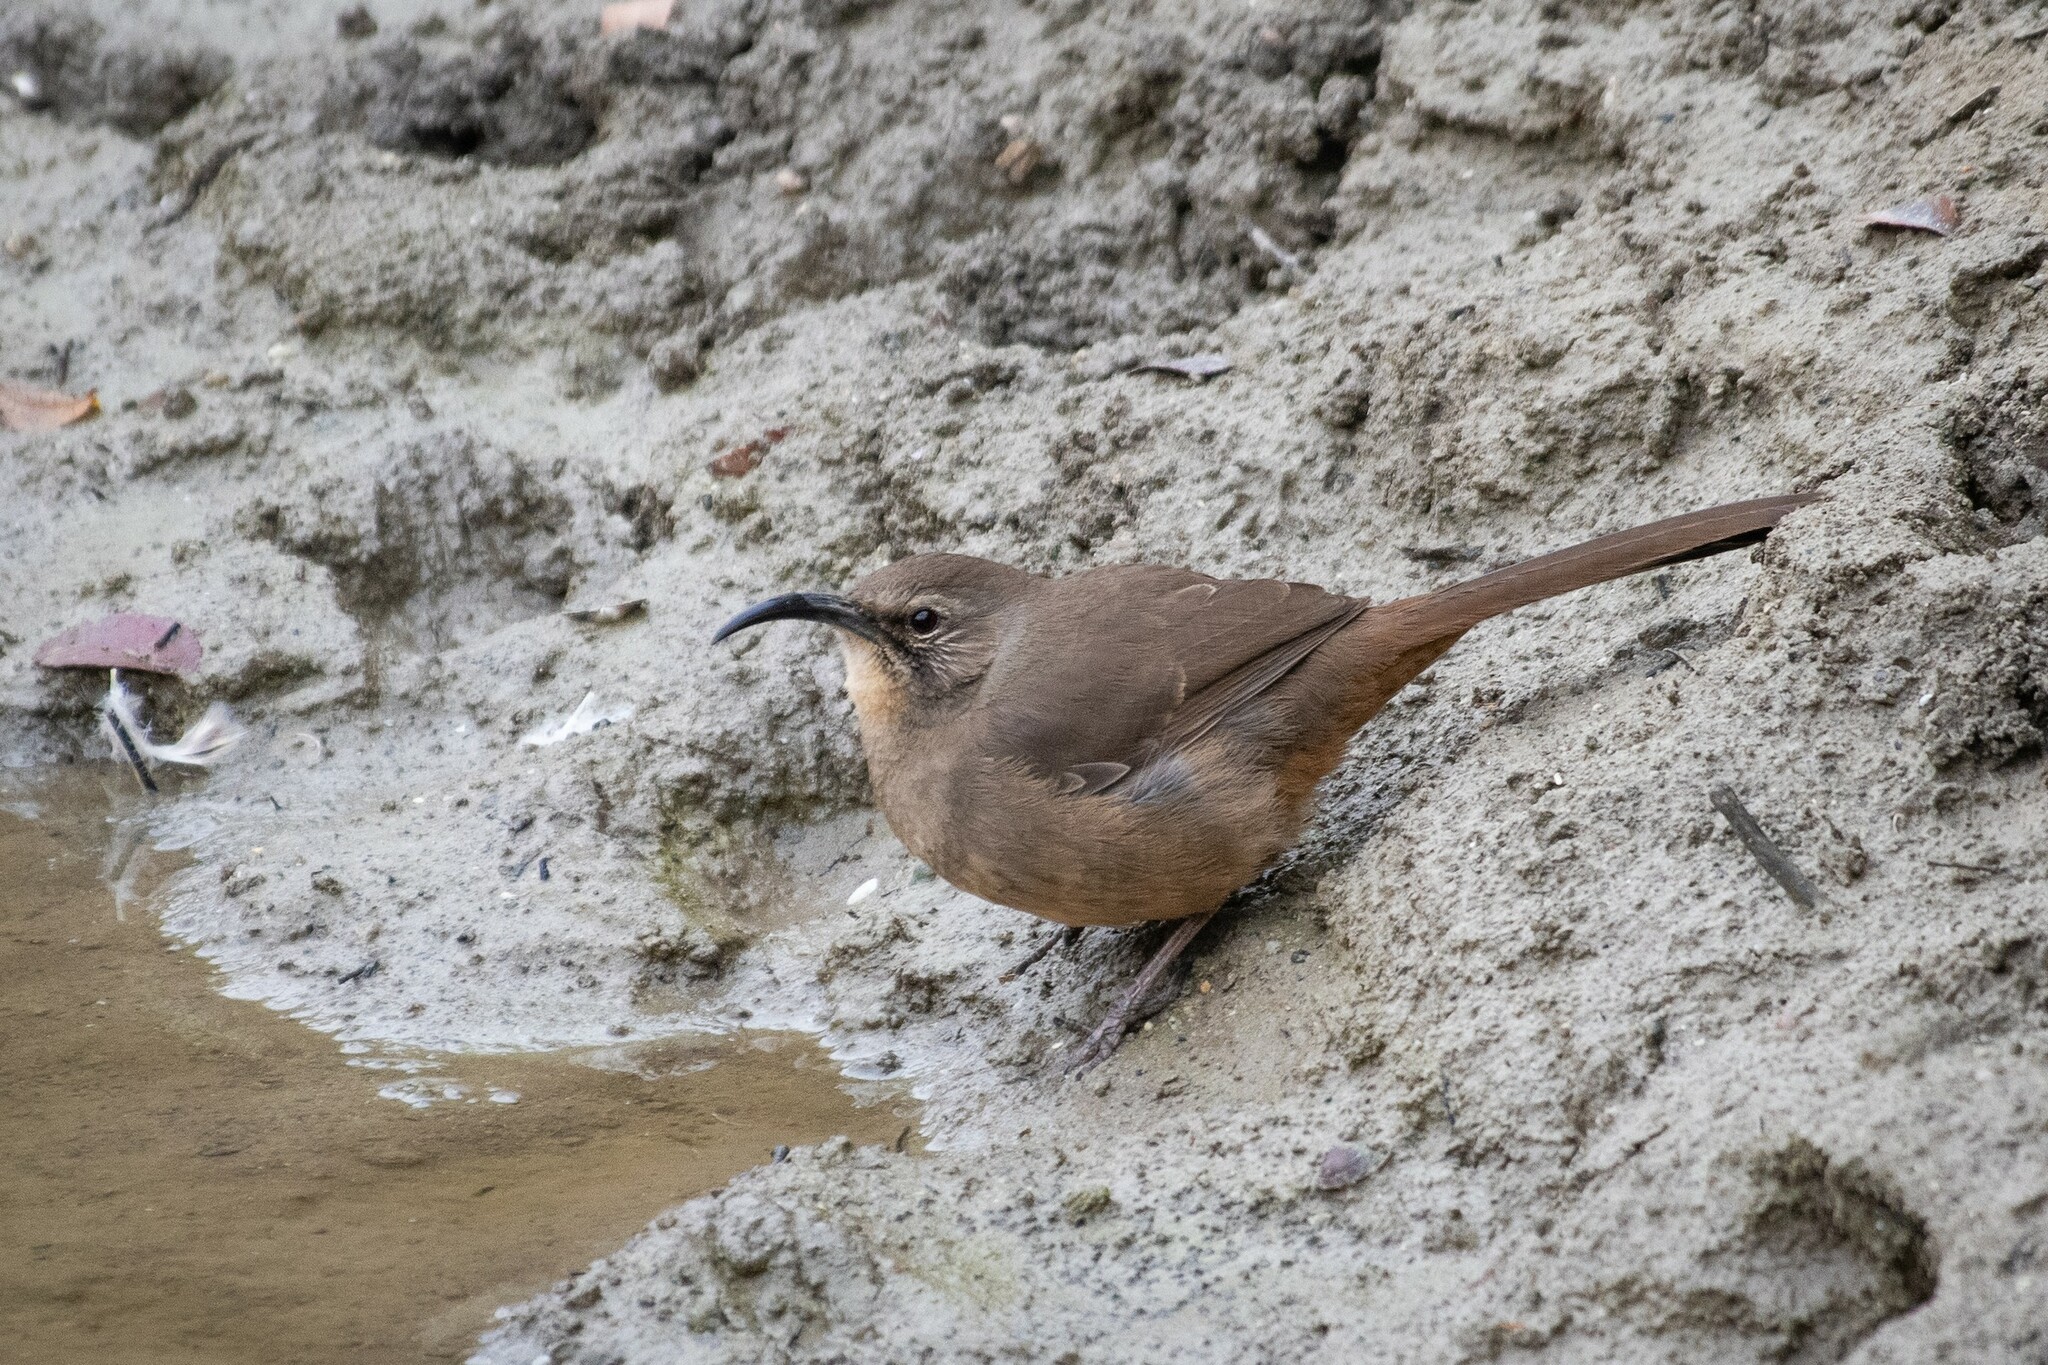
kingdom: Animalia
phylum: Chordata
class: Aves
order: Passeriformes
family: Mimidae
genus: Toxostoma
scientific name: Toxostoma redivivum
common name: California thrasher
